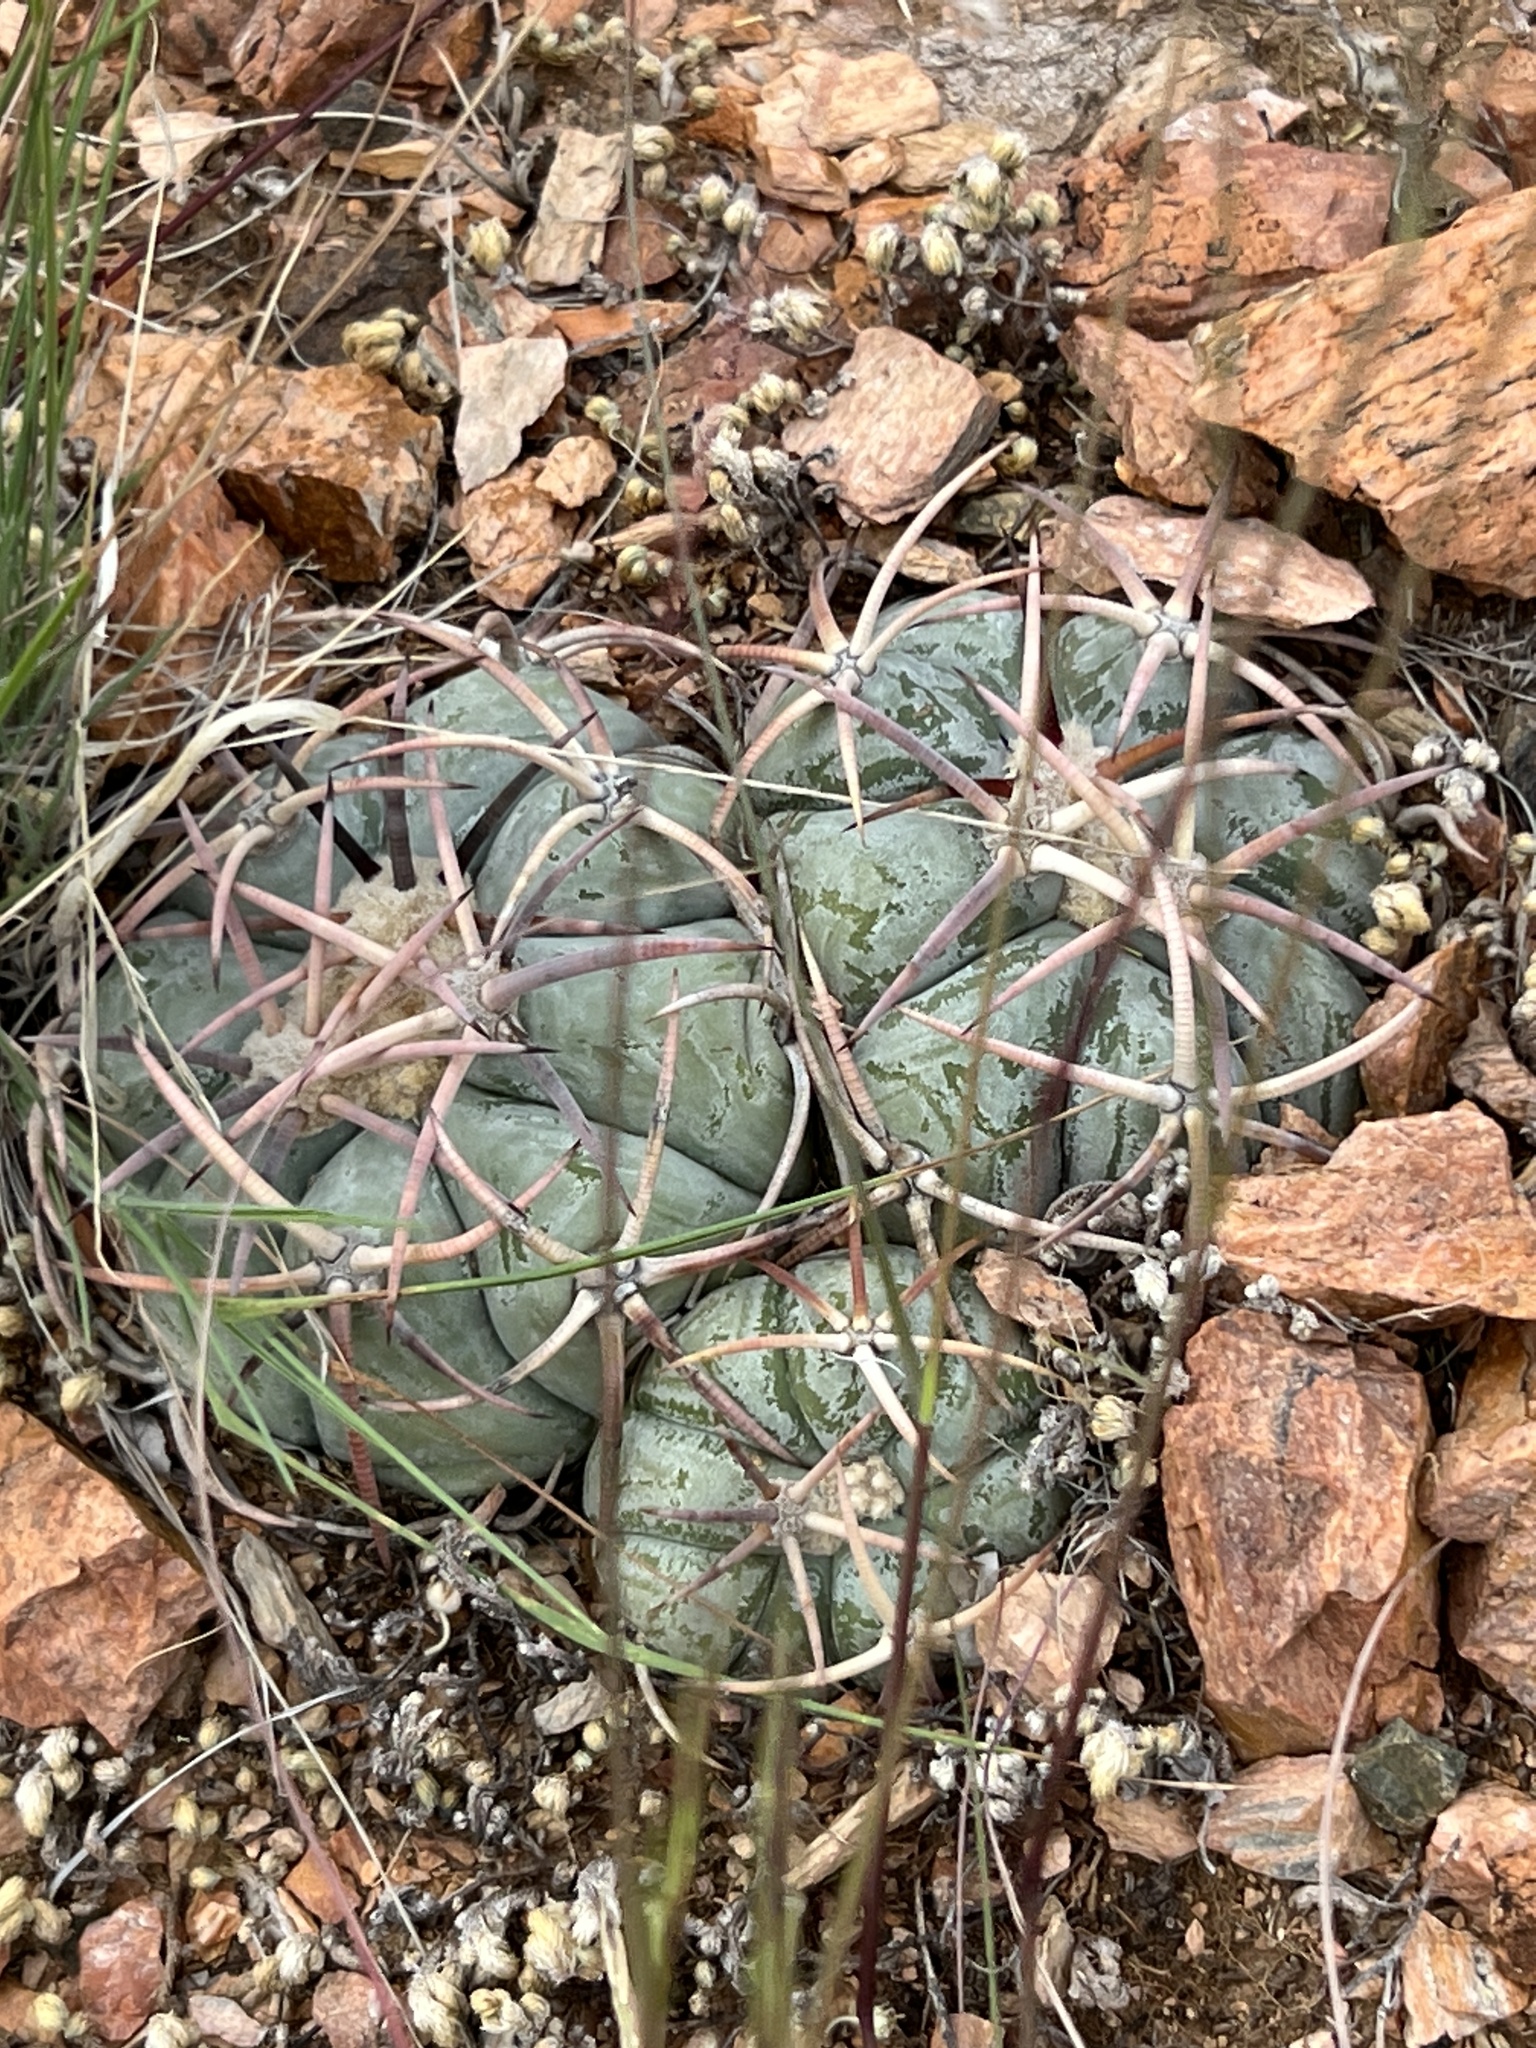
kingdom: Plantae
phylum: Tracheophyta
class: Magnoliopsida
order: Caryophyllales
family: Cactaceae
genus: Echinocactus
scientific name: Echinocactus horizonthalonius
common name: Devilshead
